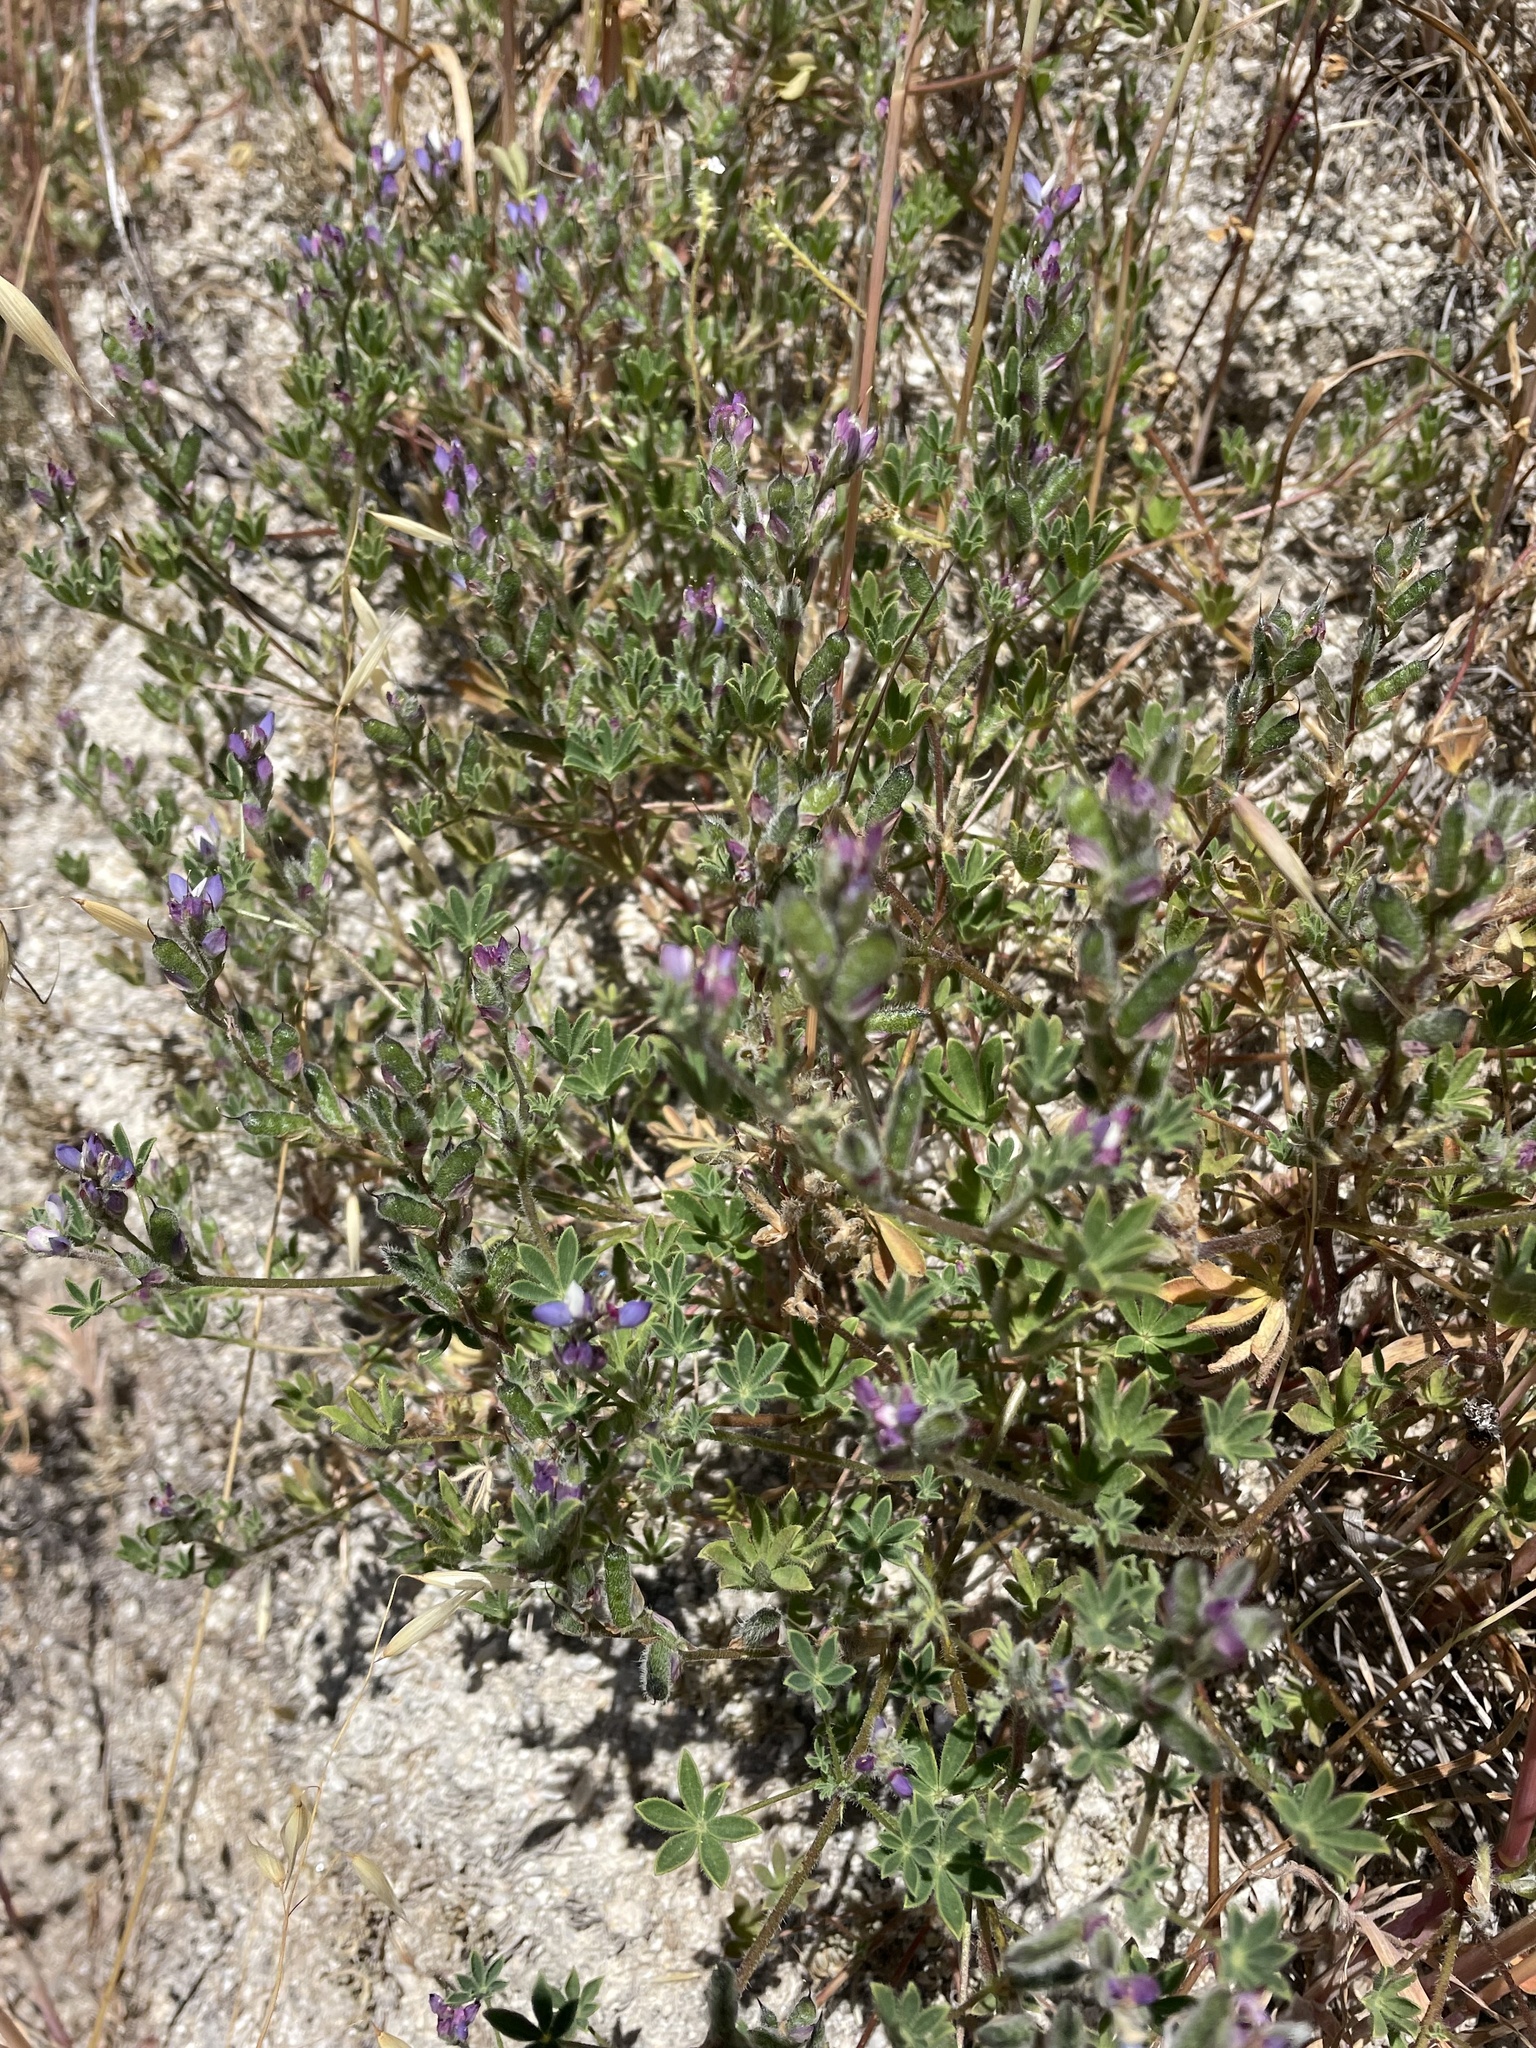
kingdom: Plantae
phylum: Tracheophyta
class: Magnoliopsida
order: Fabales
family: Fabaceae
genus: Lupinus
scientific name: Lupinus concinnus
